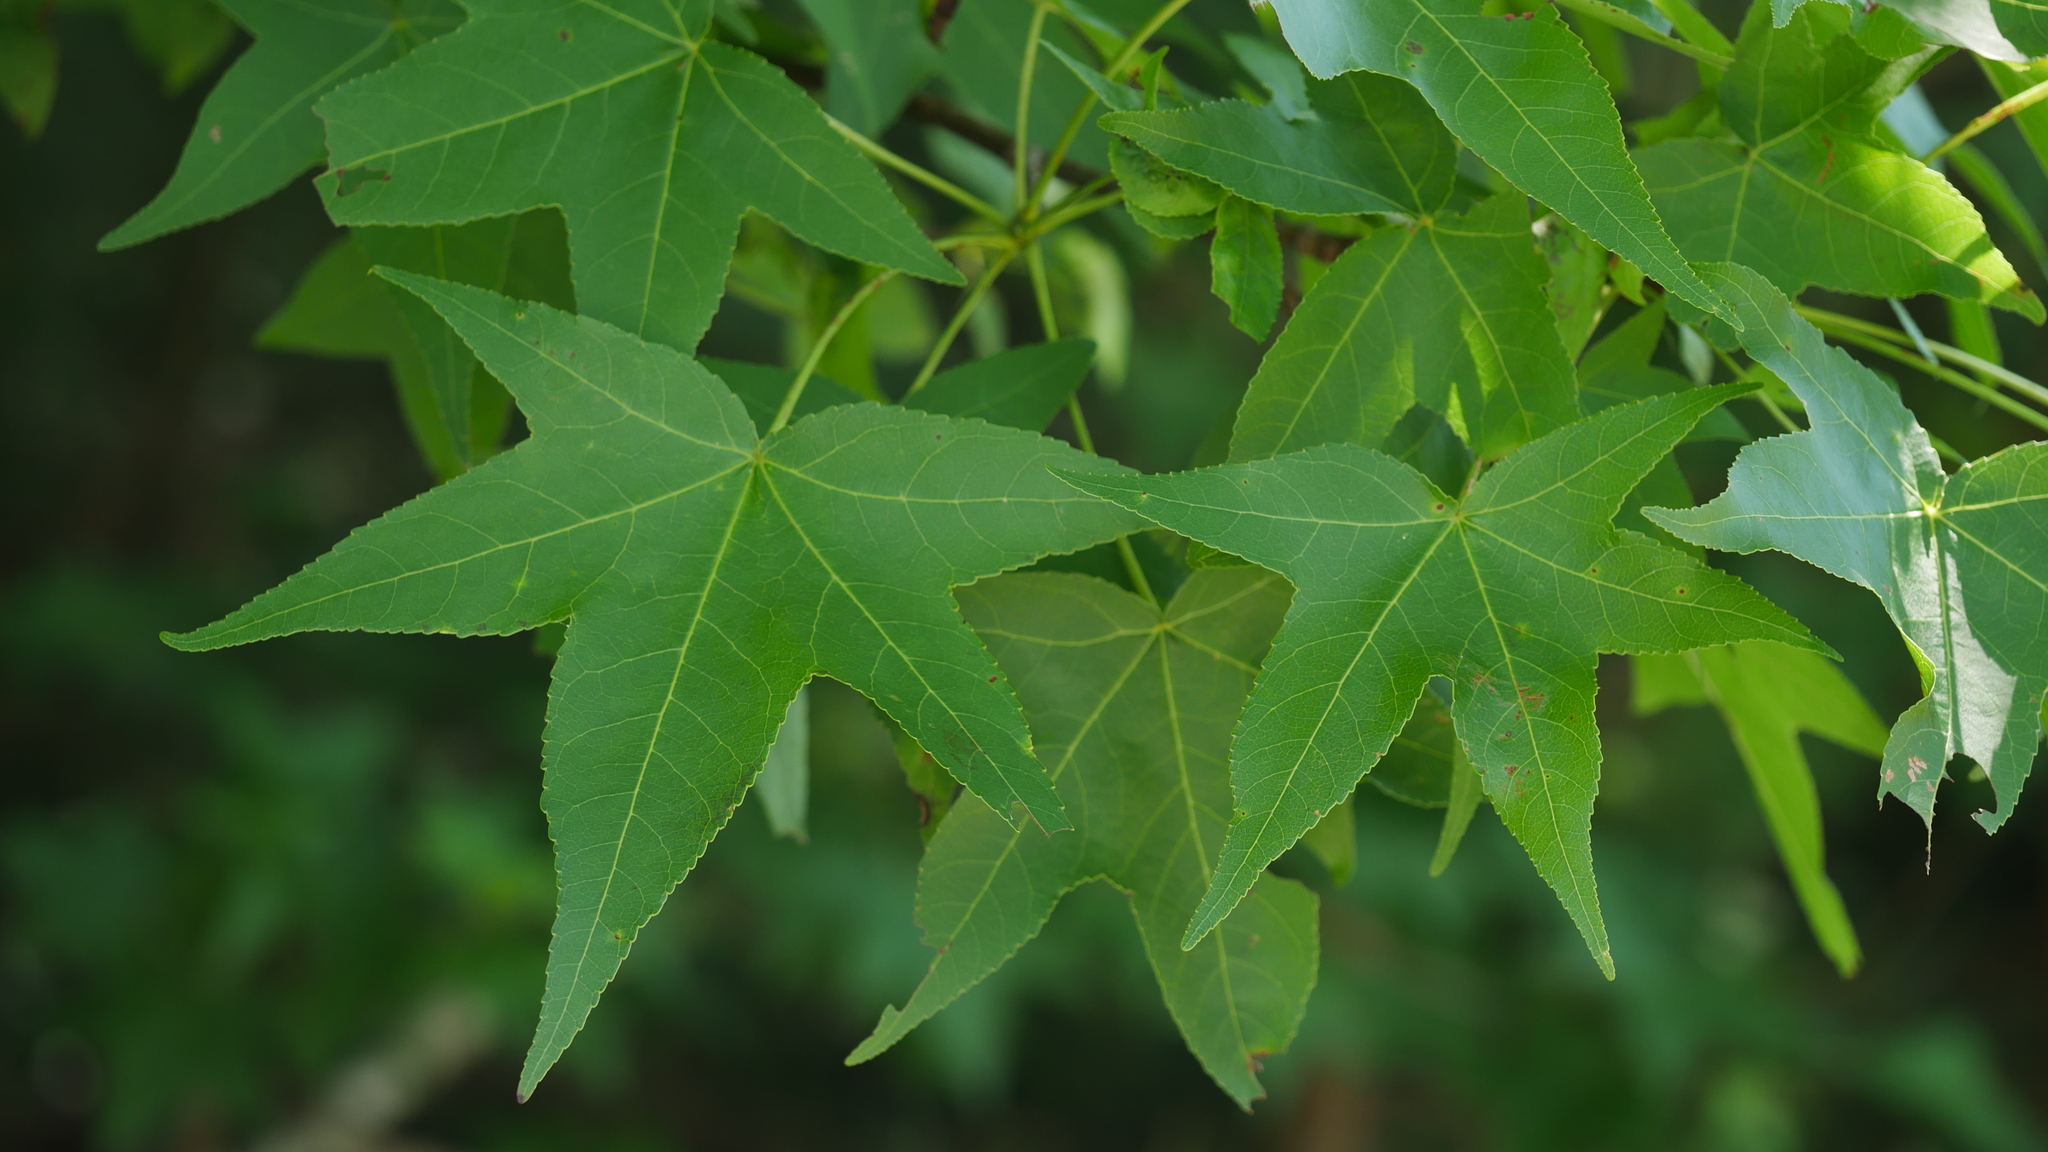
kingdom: Plantae
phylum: Tracheophyta
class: Magnoliopsida
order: Saxifragales
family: Altingiaceae
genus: Liquidambar
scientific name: Liquidambar styraciflua
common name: Sweet gum
